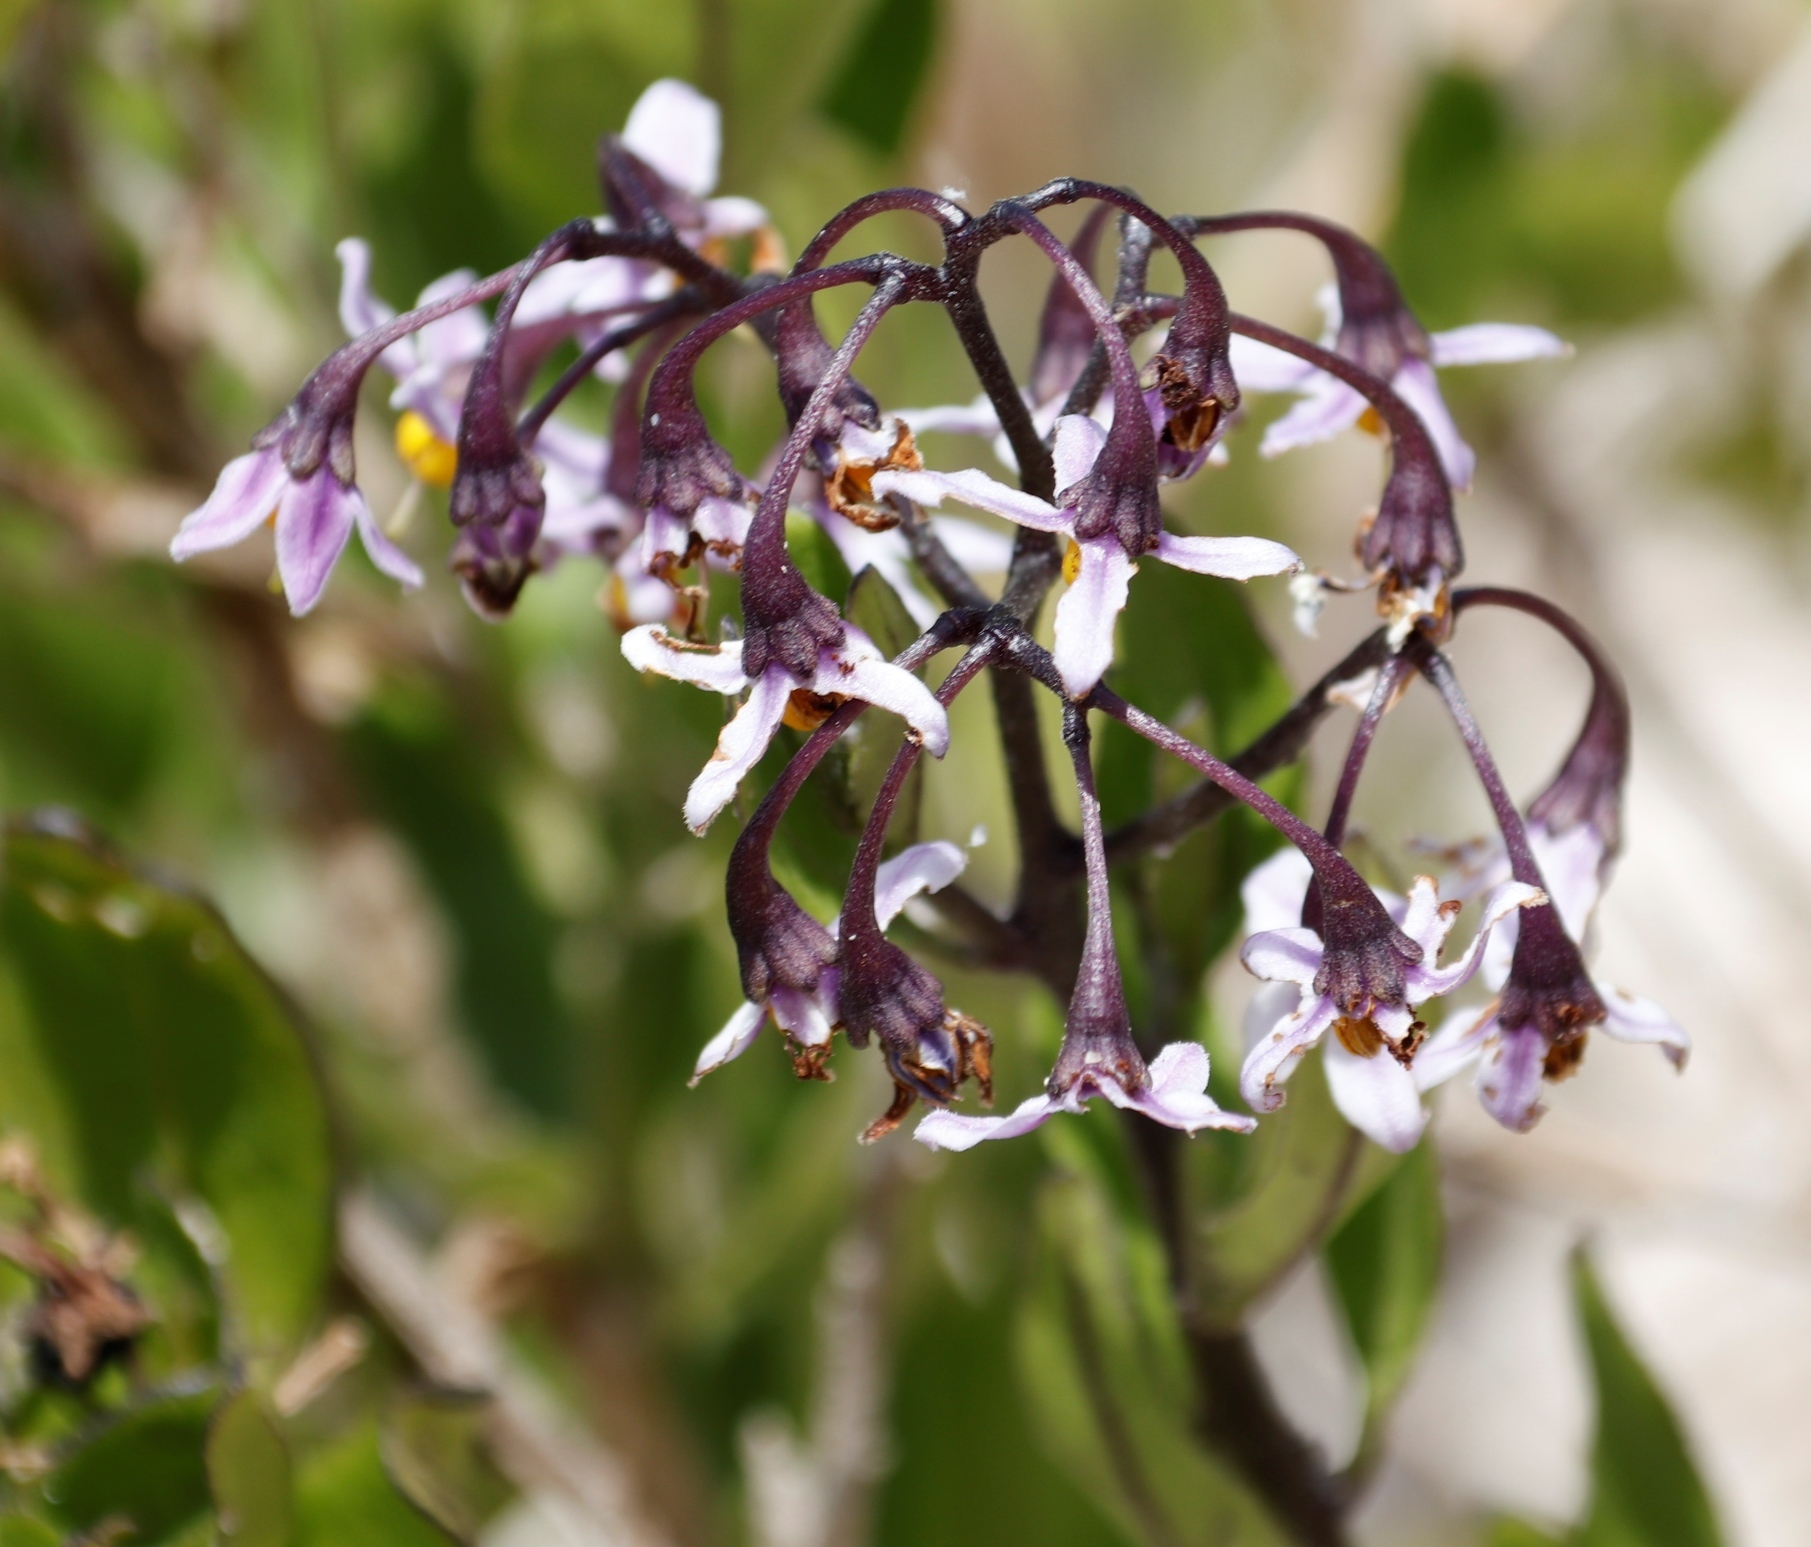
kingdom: Plantae
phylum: Tracheophyta
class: Magnoliopsida
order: Solanales
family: Solanaceae
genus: Solanum
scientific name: Solanum africanum
